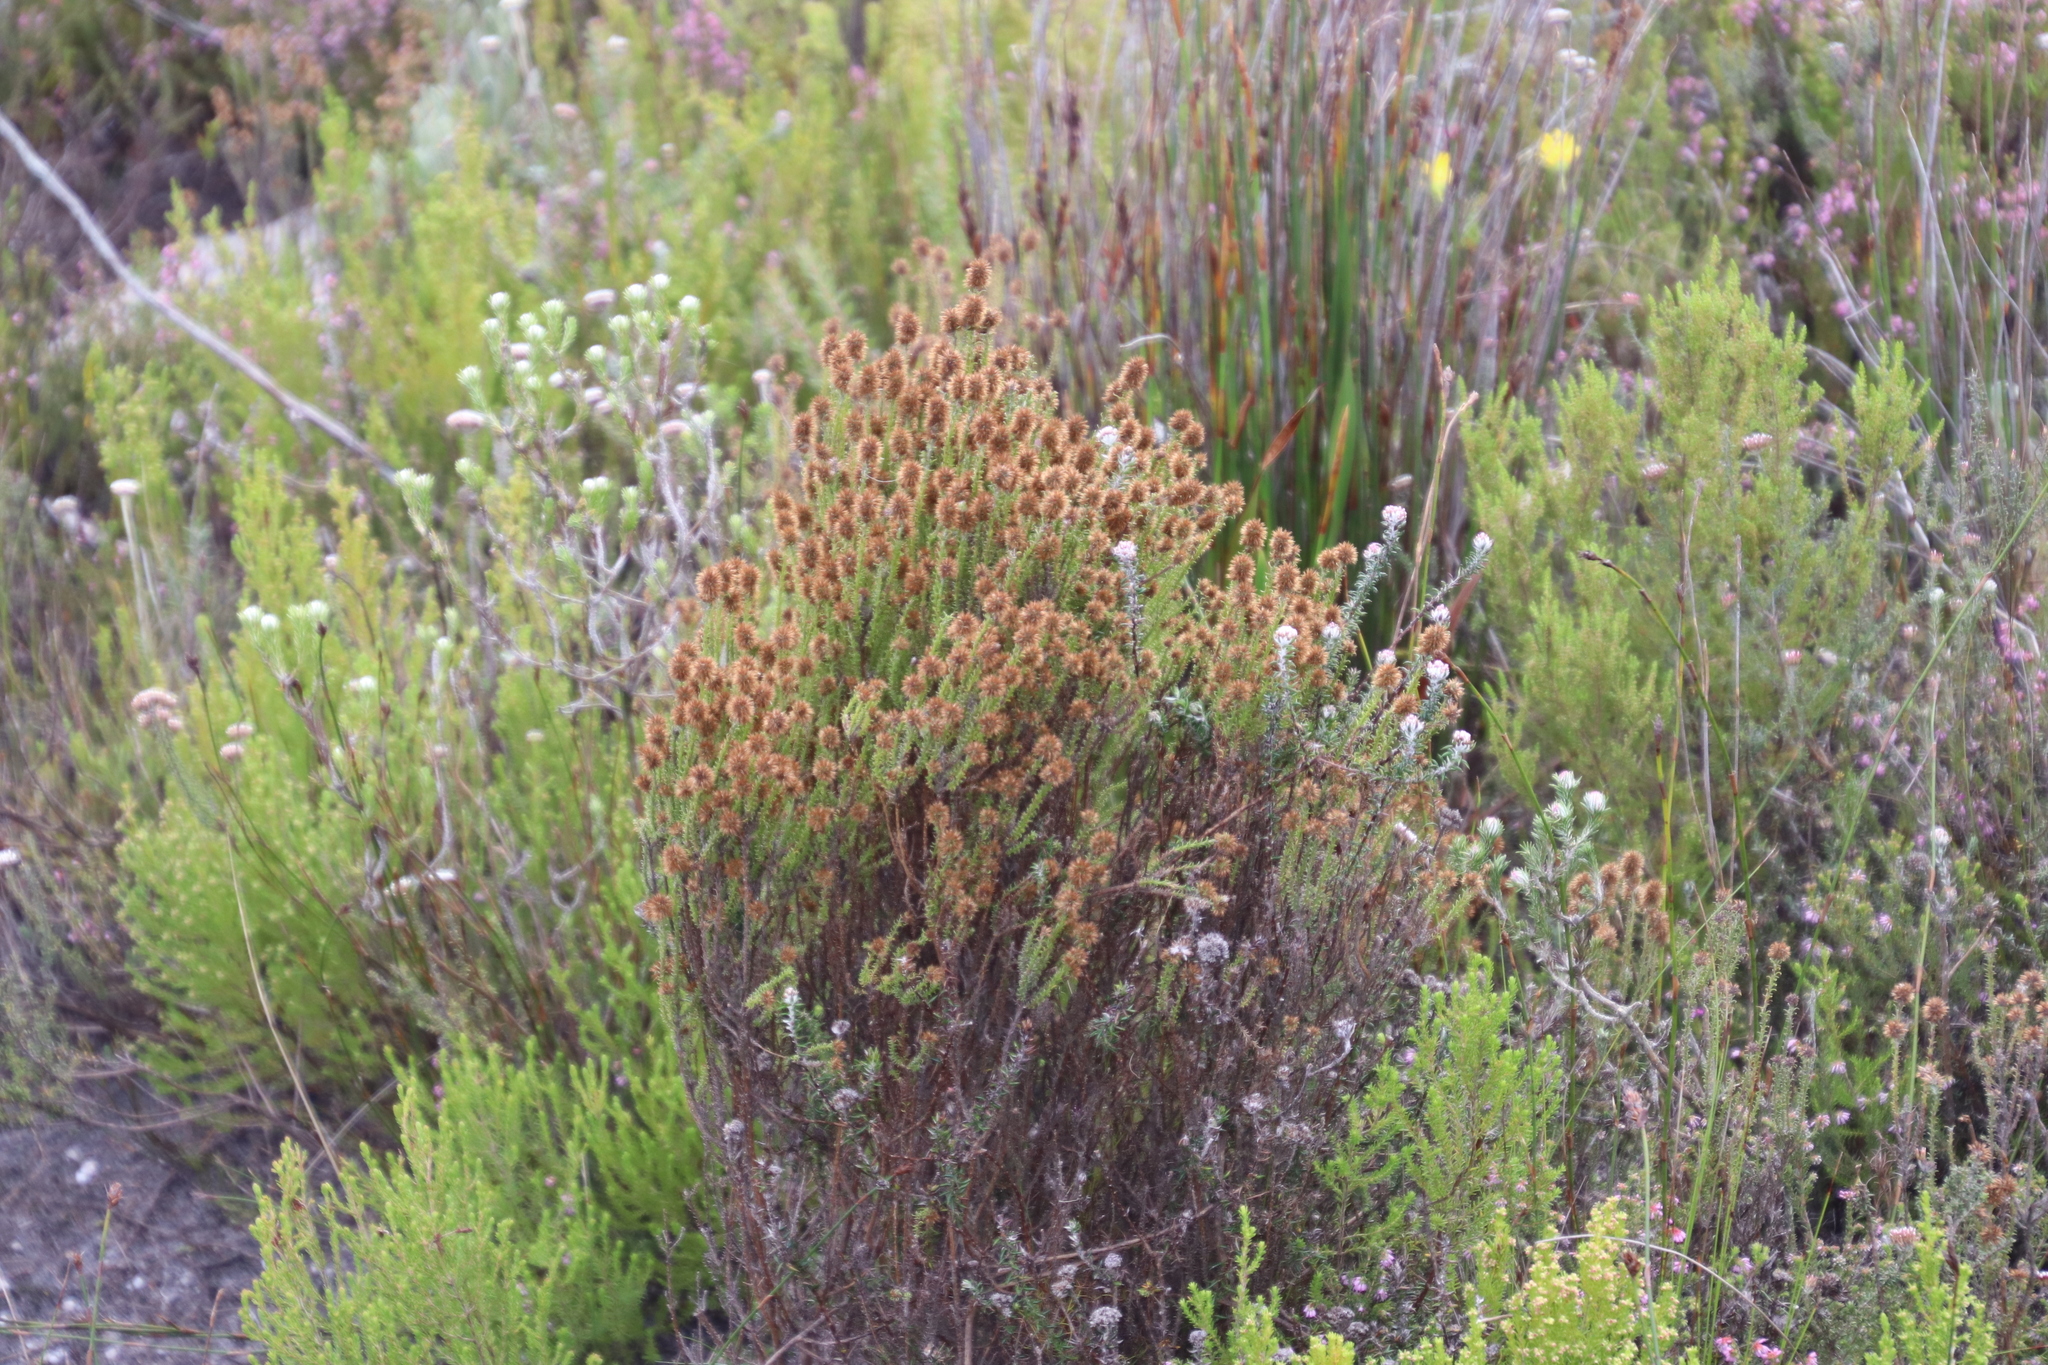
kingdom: Plantae
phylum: Tracheophyta
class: Magnoliopsida
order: Asterales
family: Asteraceae
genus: Seriphium
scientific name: Seriphium cinereum
